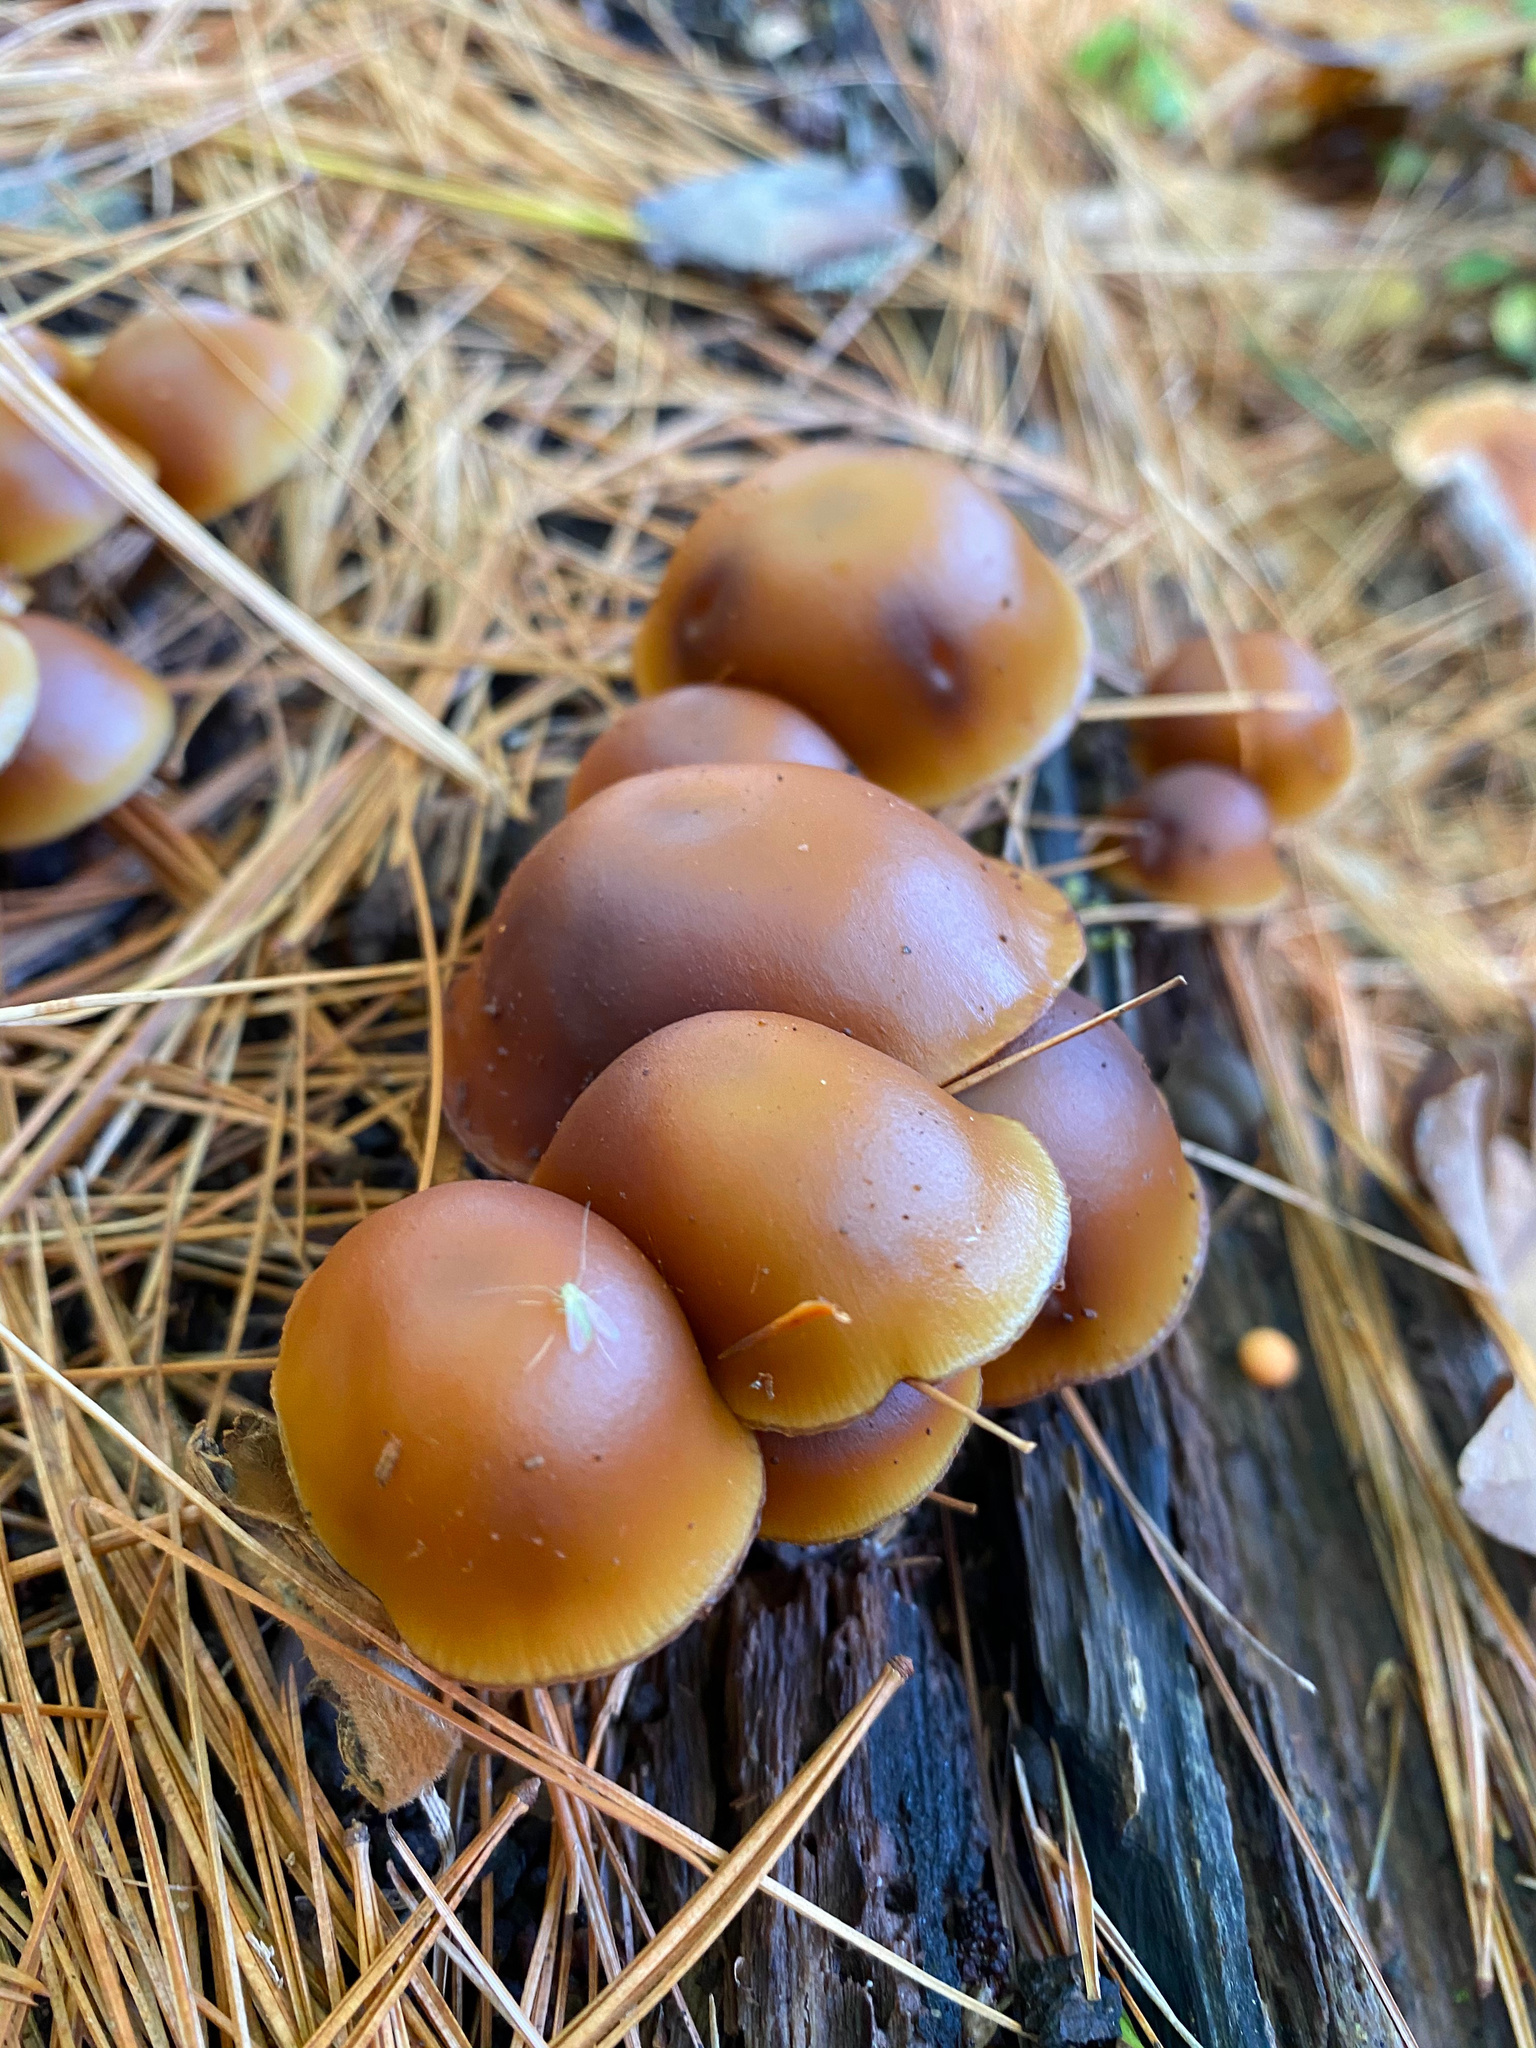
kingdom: Fungi
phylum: Basidiomycota
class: Agaricomycetes
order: Agaricales
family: Hymenogastraceae
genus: Galerina
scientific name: Galerina marginata
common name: Funeral bell
